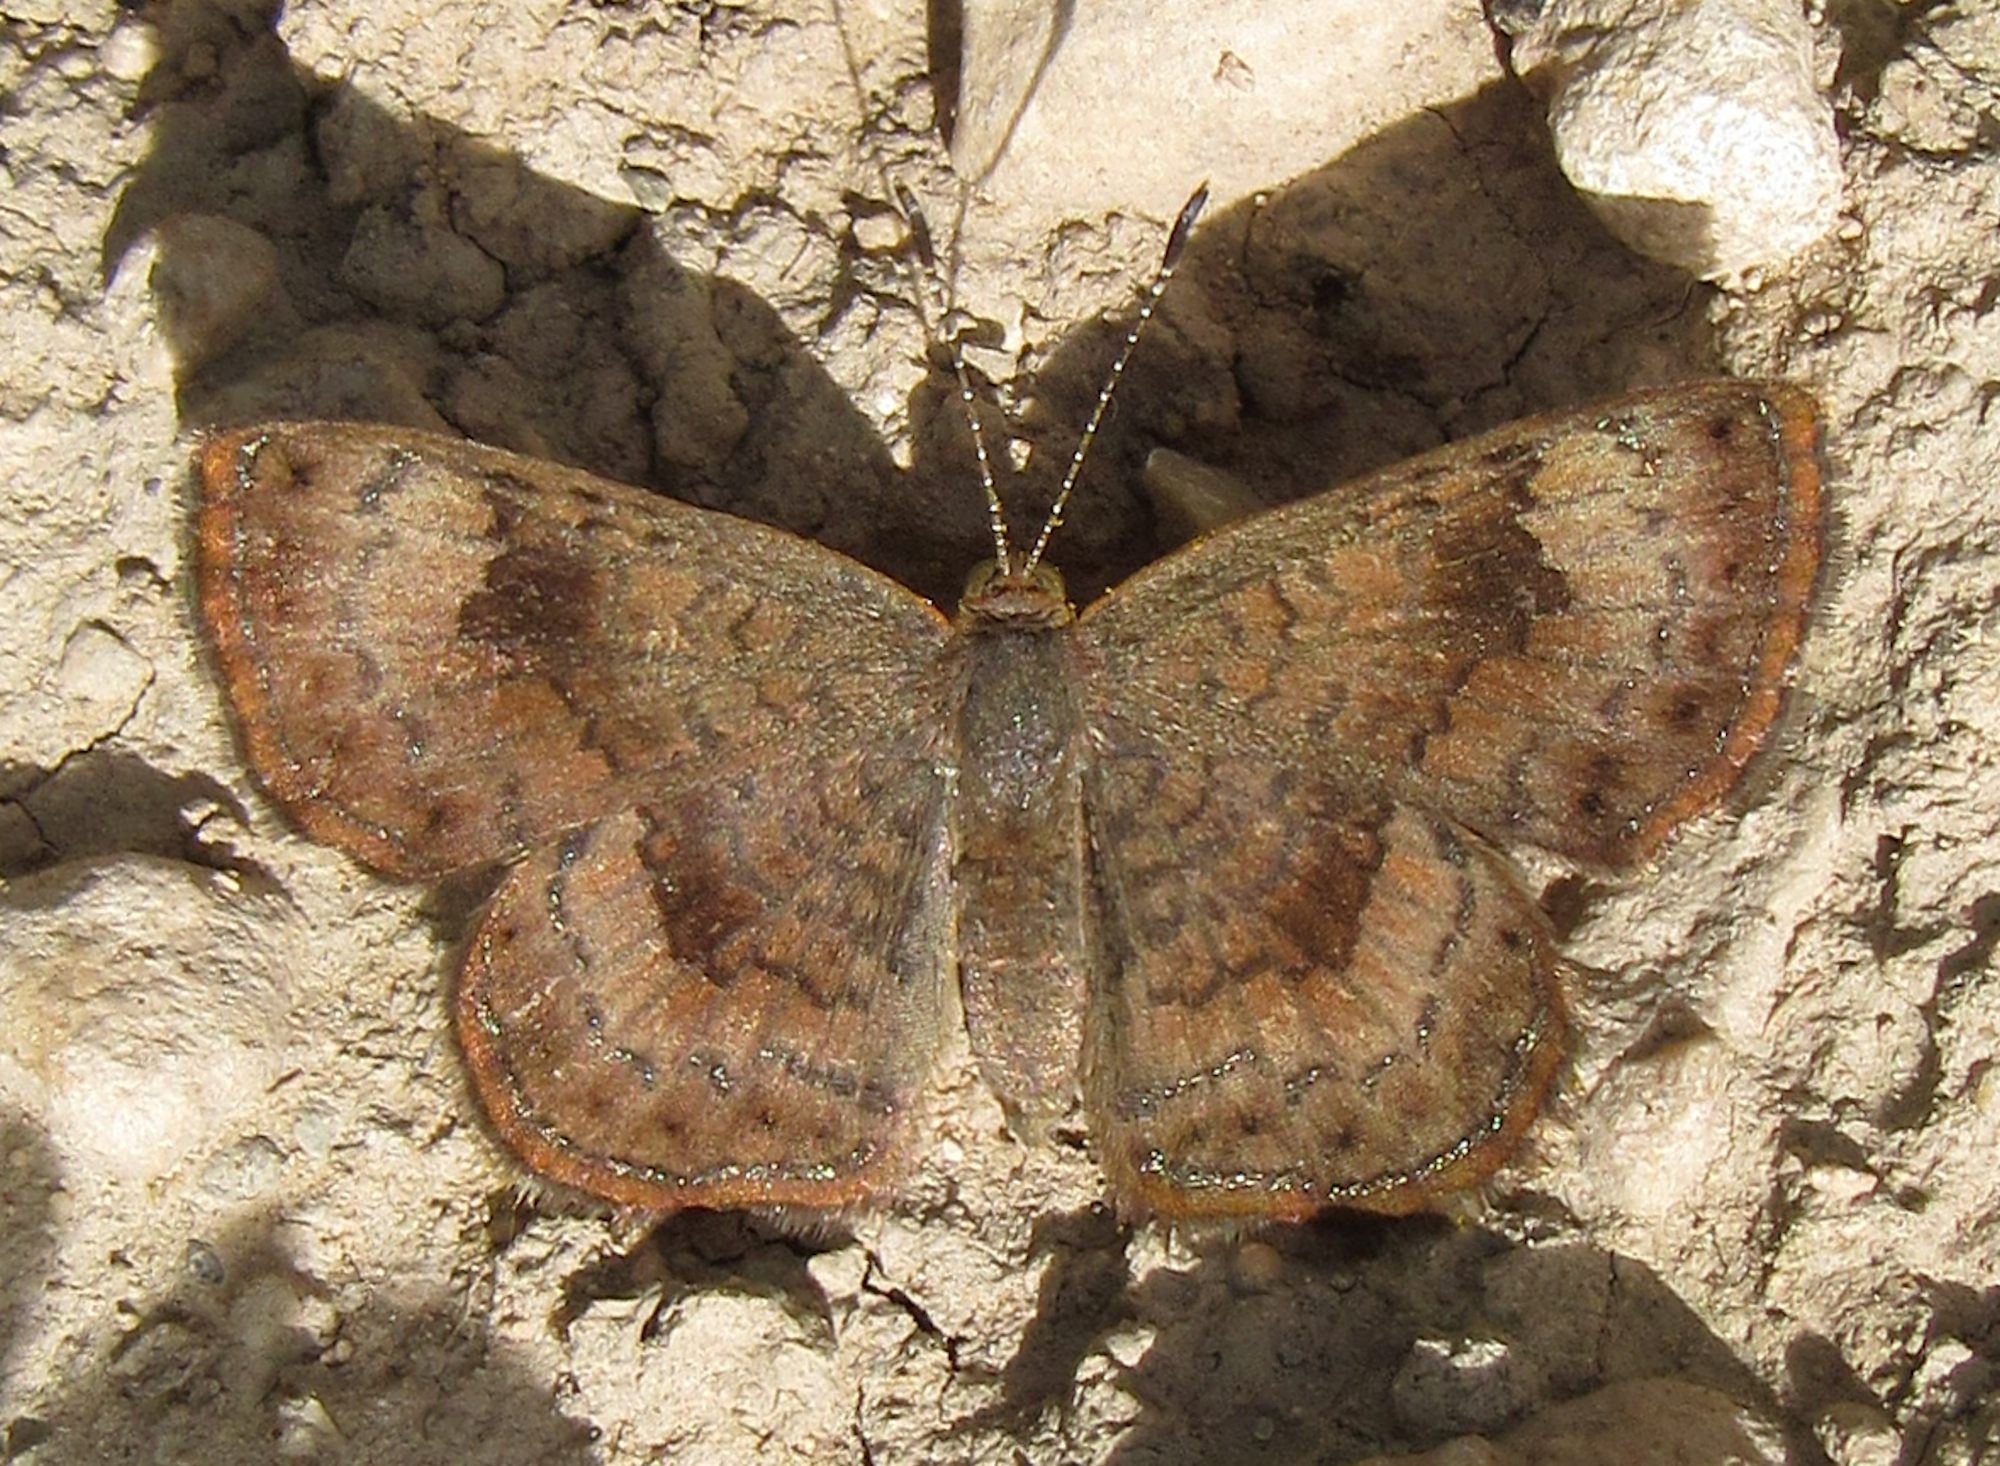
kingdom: Animalia
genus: Calephelis
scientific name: Calephelis nemesis
